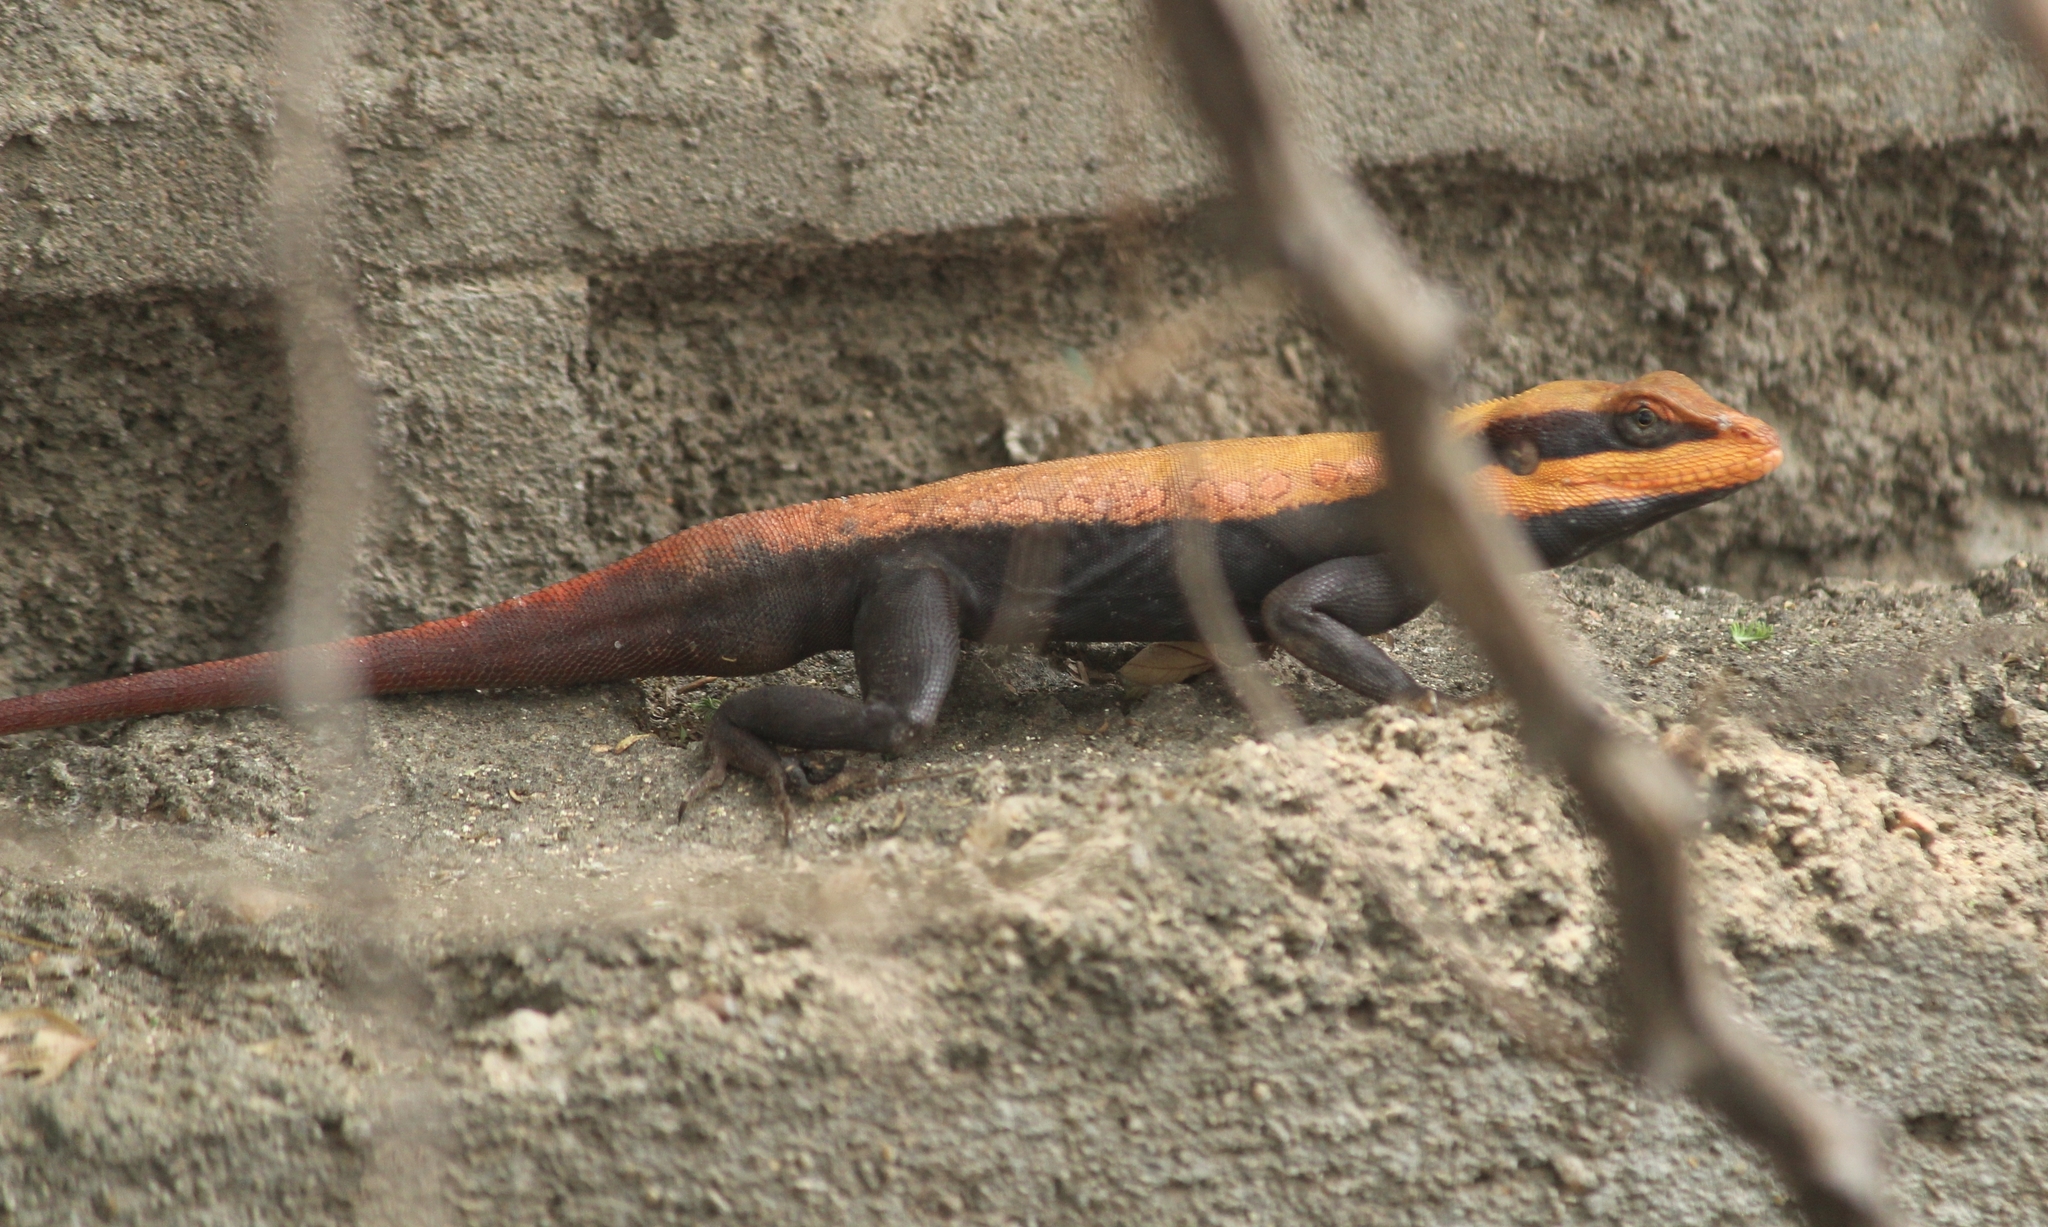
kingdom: Animalia
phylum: Chordata
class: Squamata
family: Agamidae
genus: Psammophilus
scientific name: Psammophilus dorsalis
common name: South indian rock agama
